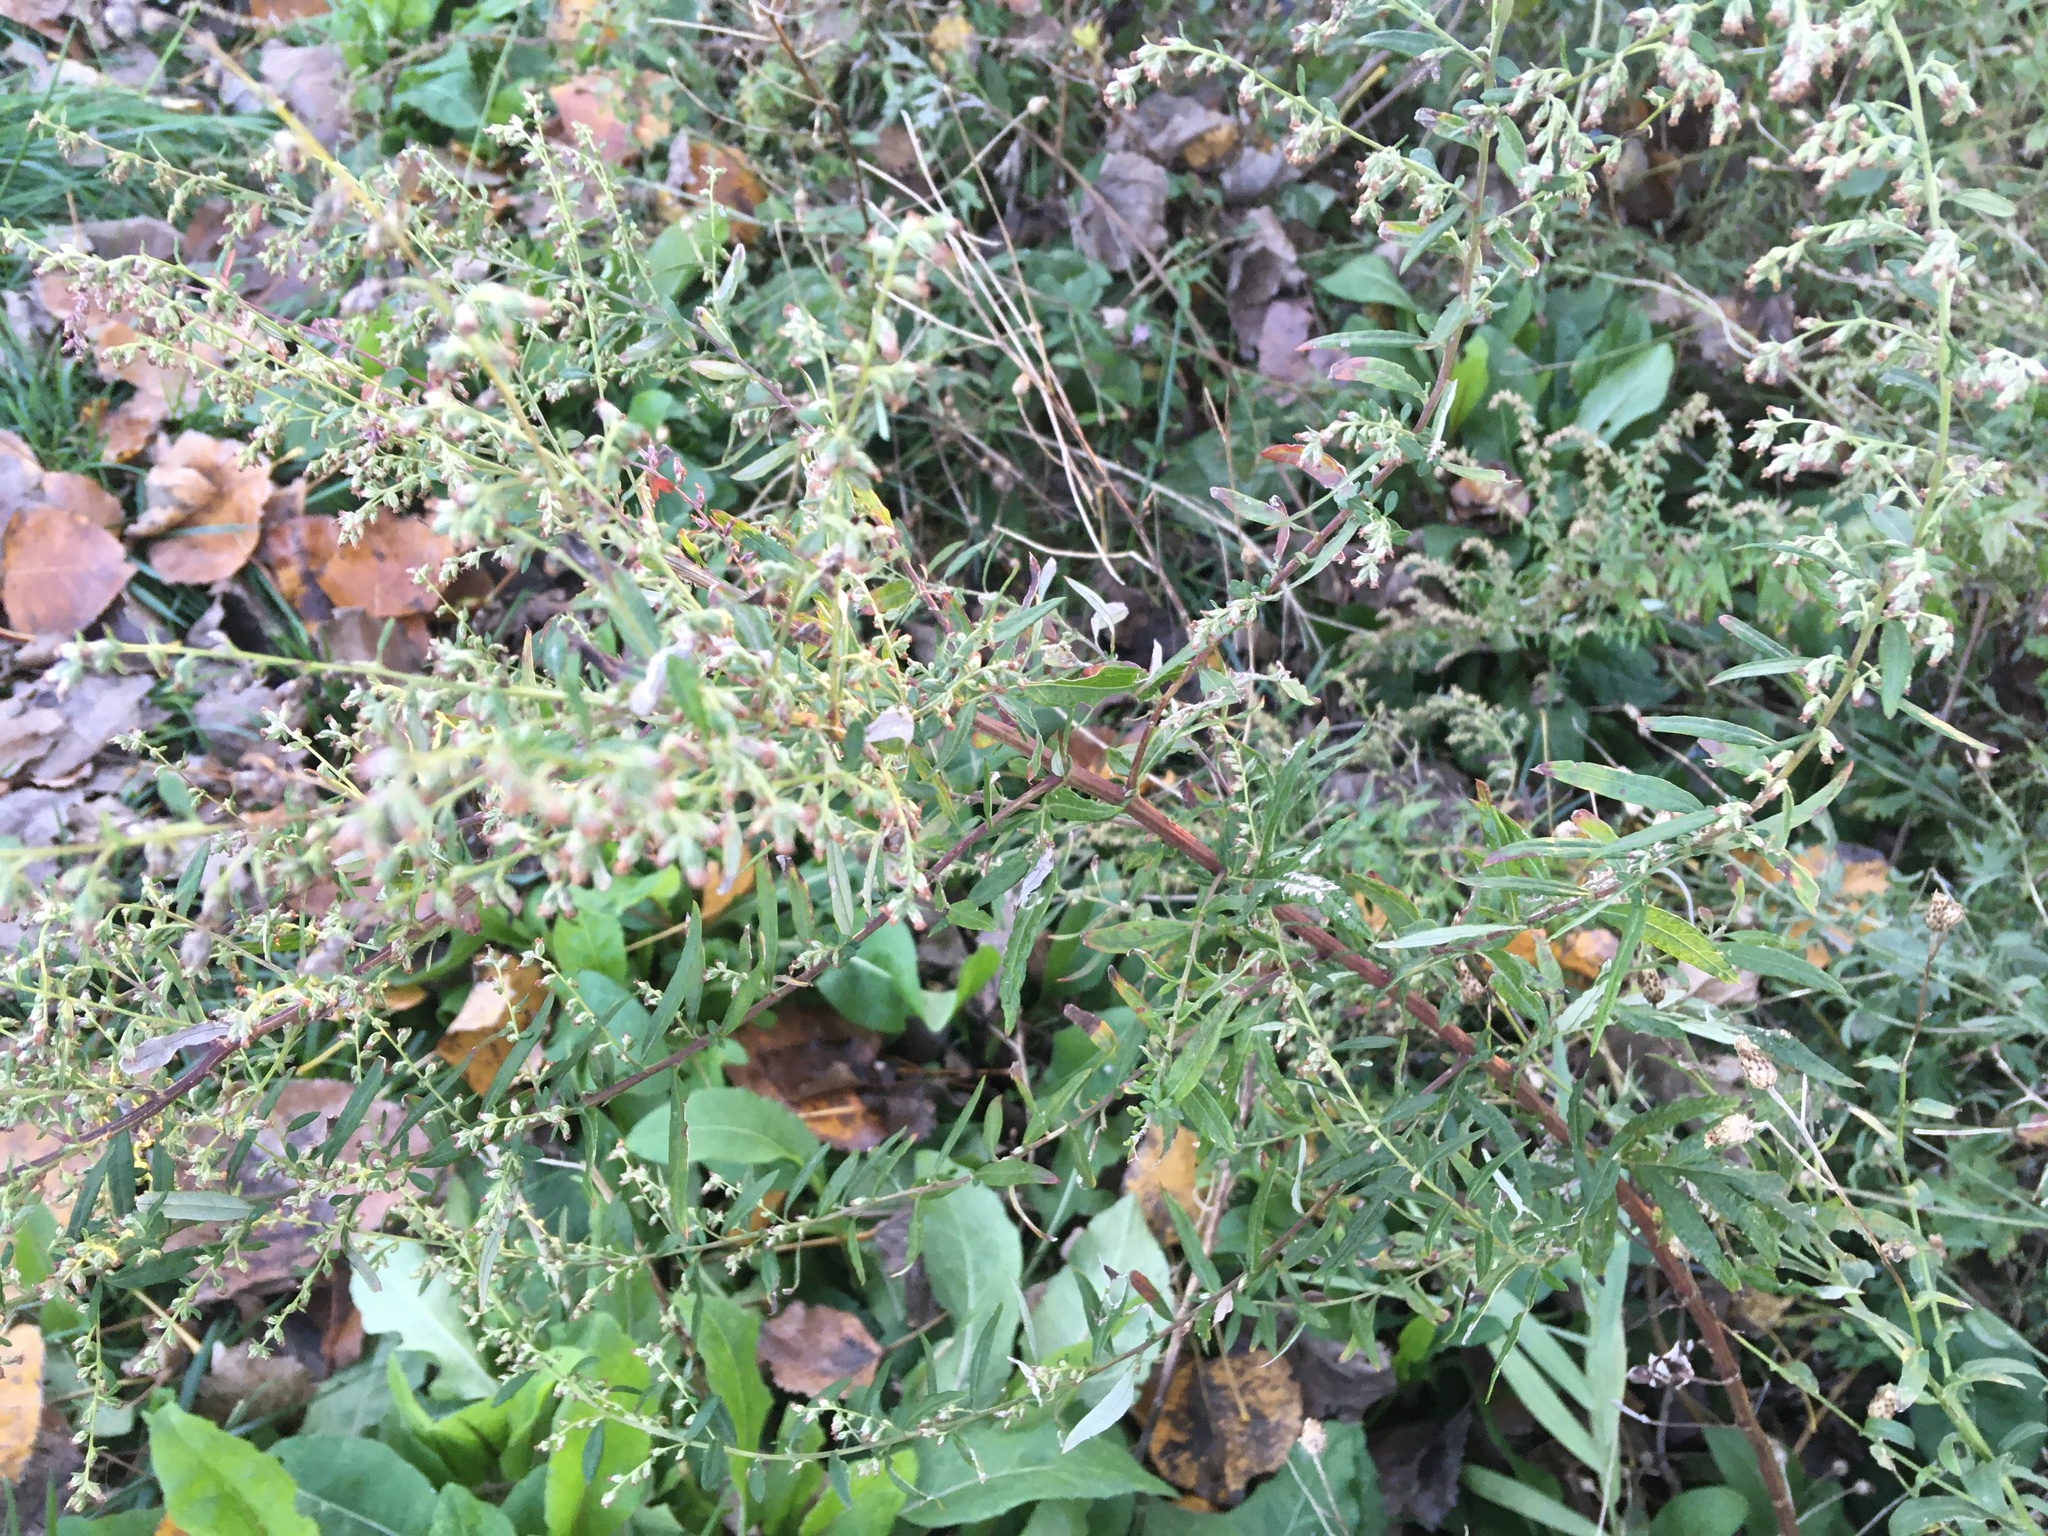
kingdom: Plantae
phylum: Tracheophyta
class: Magnoliopsida
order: Asterales
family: Asteraceae
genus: Artemisia
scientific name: Artemisia vulgaris
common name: Mugwort
